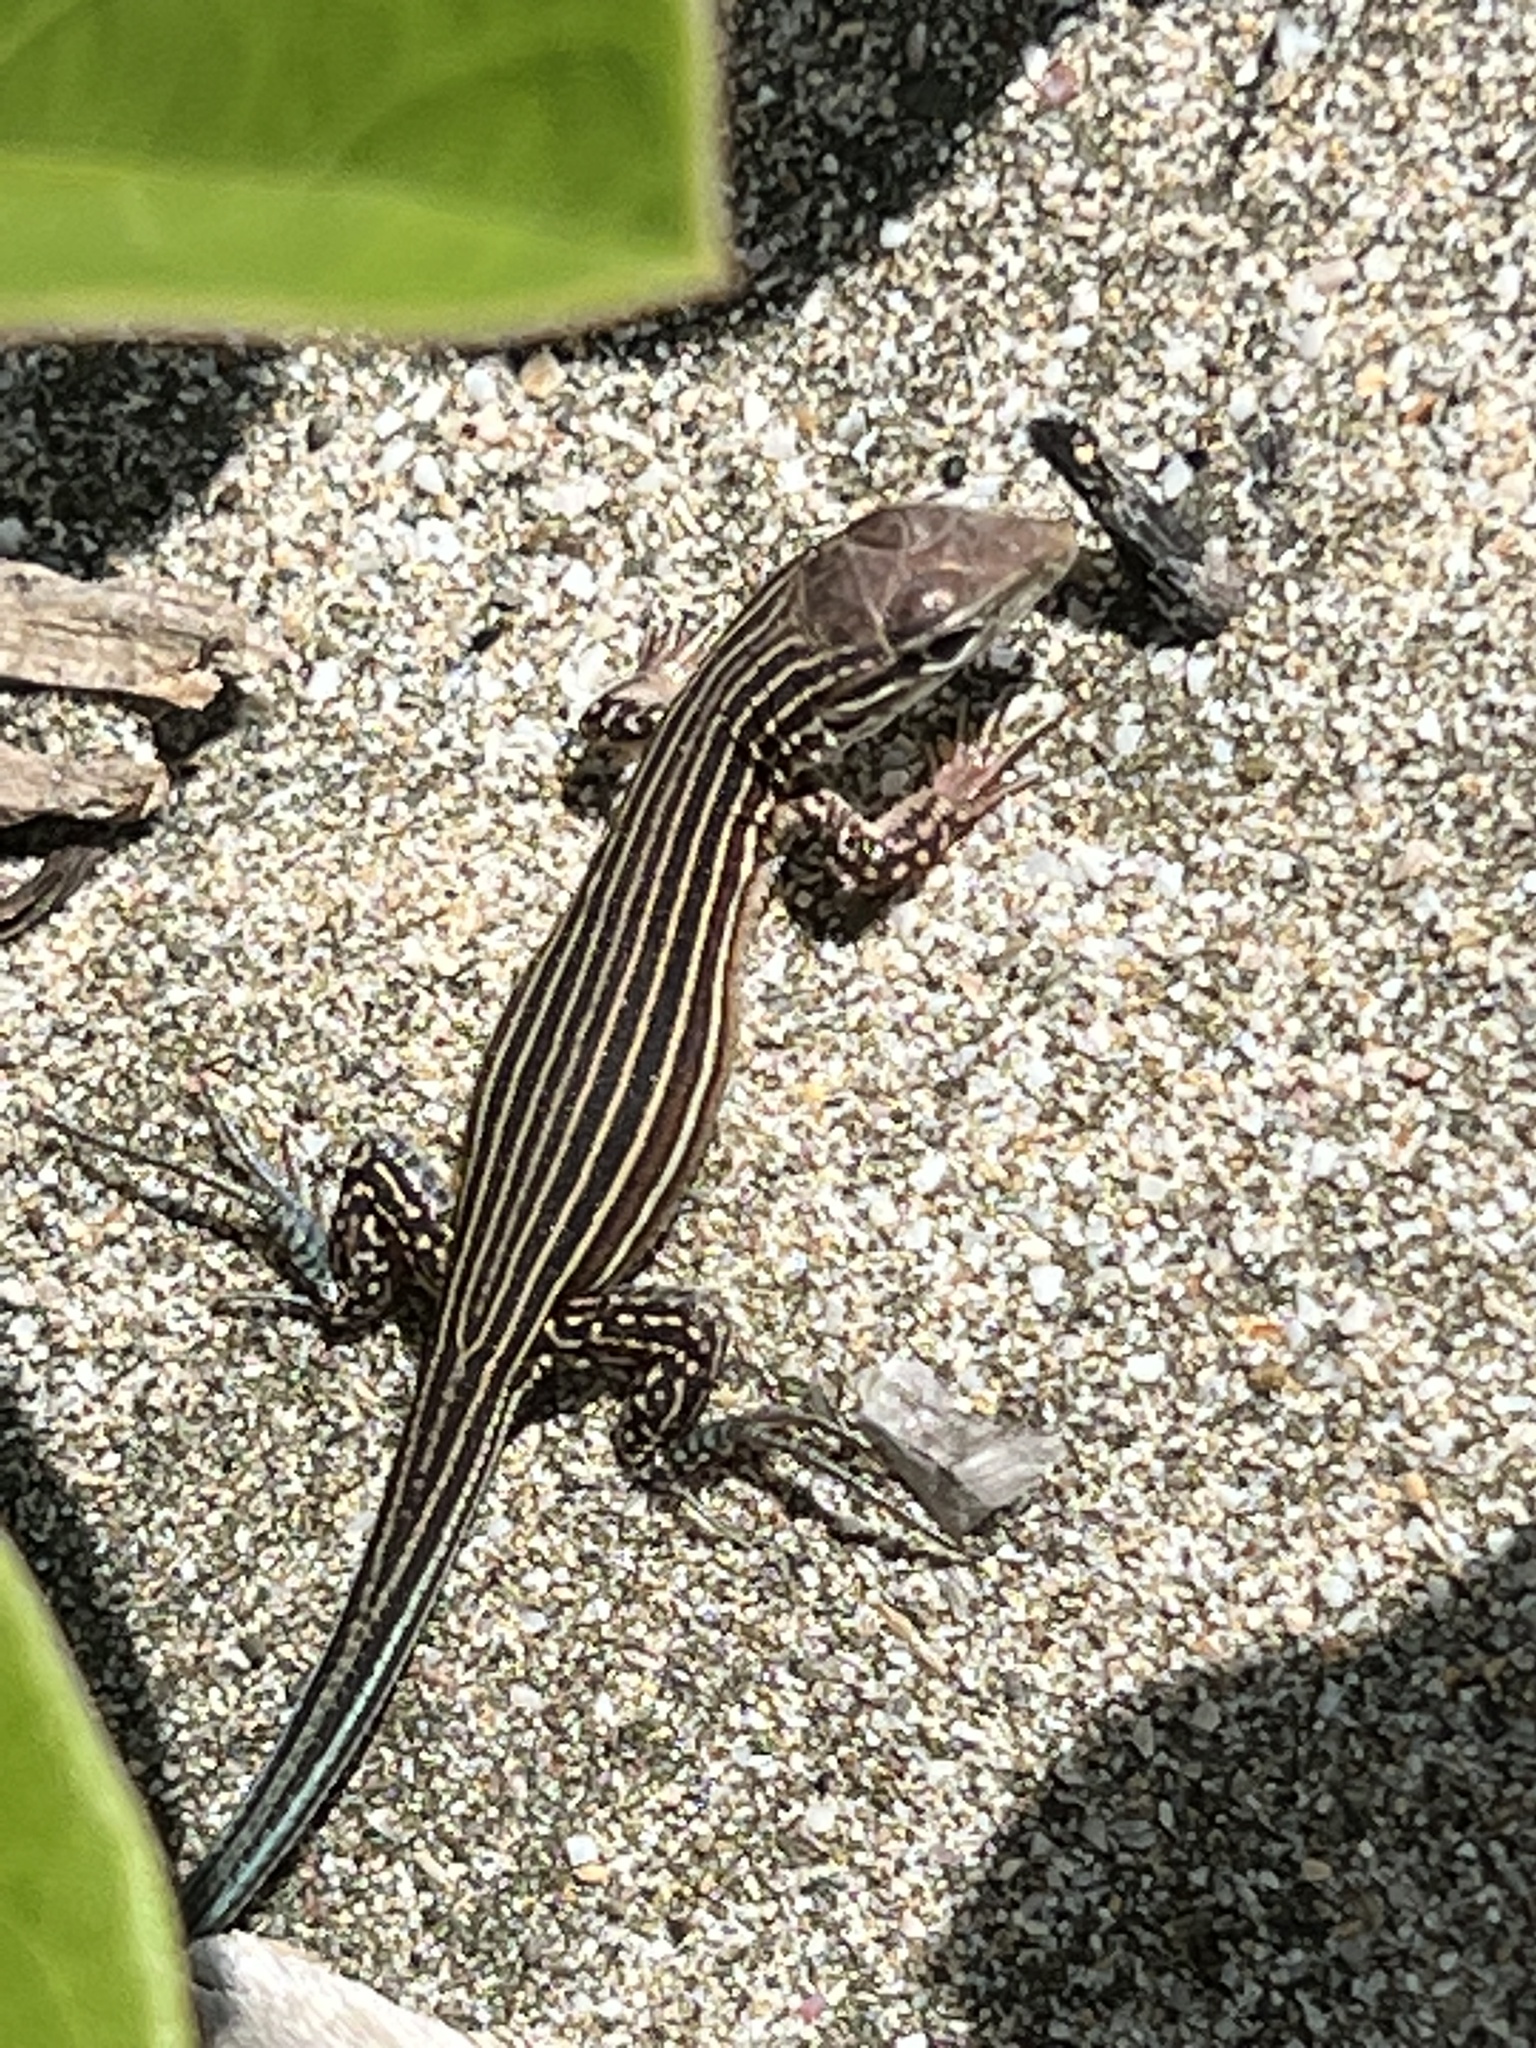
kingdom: Animalia
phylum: Chordata
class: Squamata
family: Teiidae
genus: Aspidoscelis
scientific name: Aspidoscelis deppii
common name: Blackbelly racerunner
